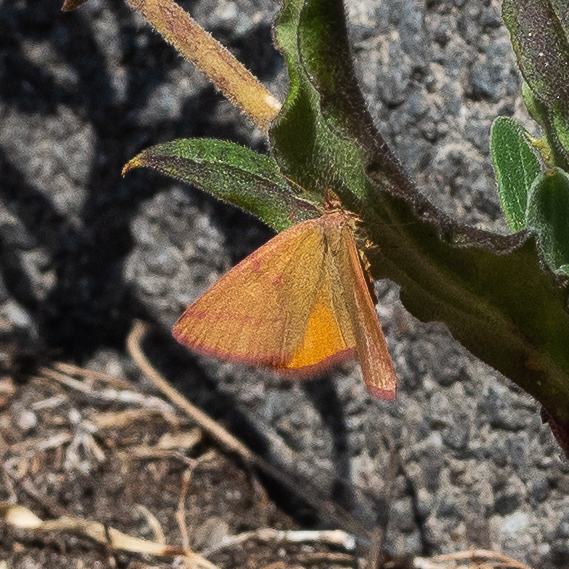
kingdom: Animalia
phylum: Arthropoda
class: Insecta
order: Lepidoptera
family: Geometridae
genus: Lythria
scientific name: Lythria purpuraria
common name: Purple-barred yellow
